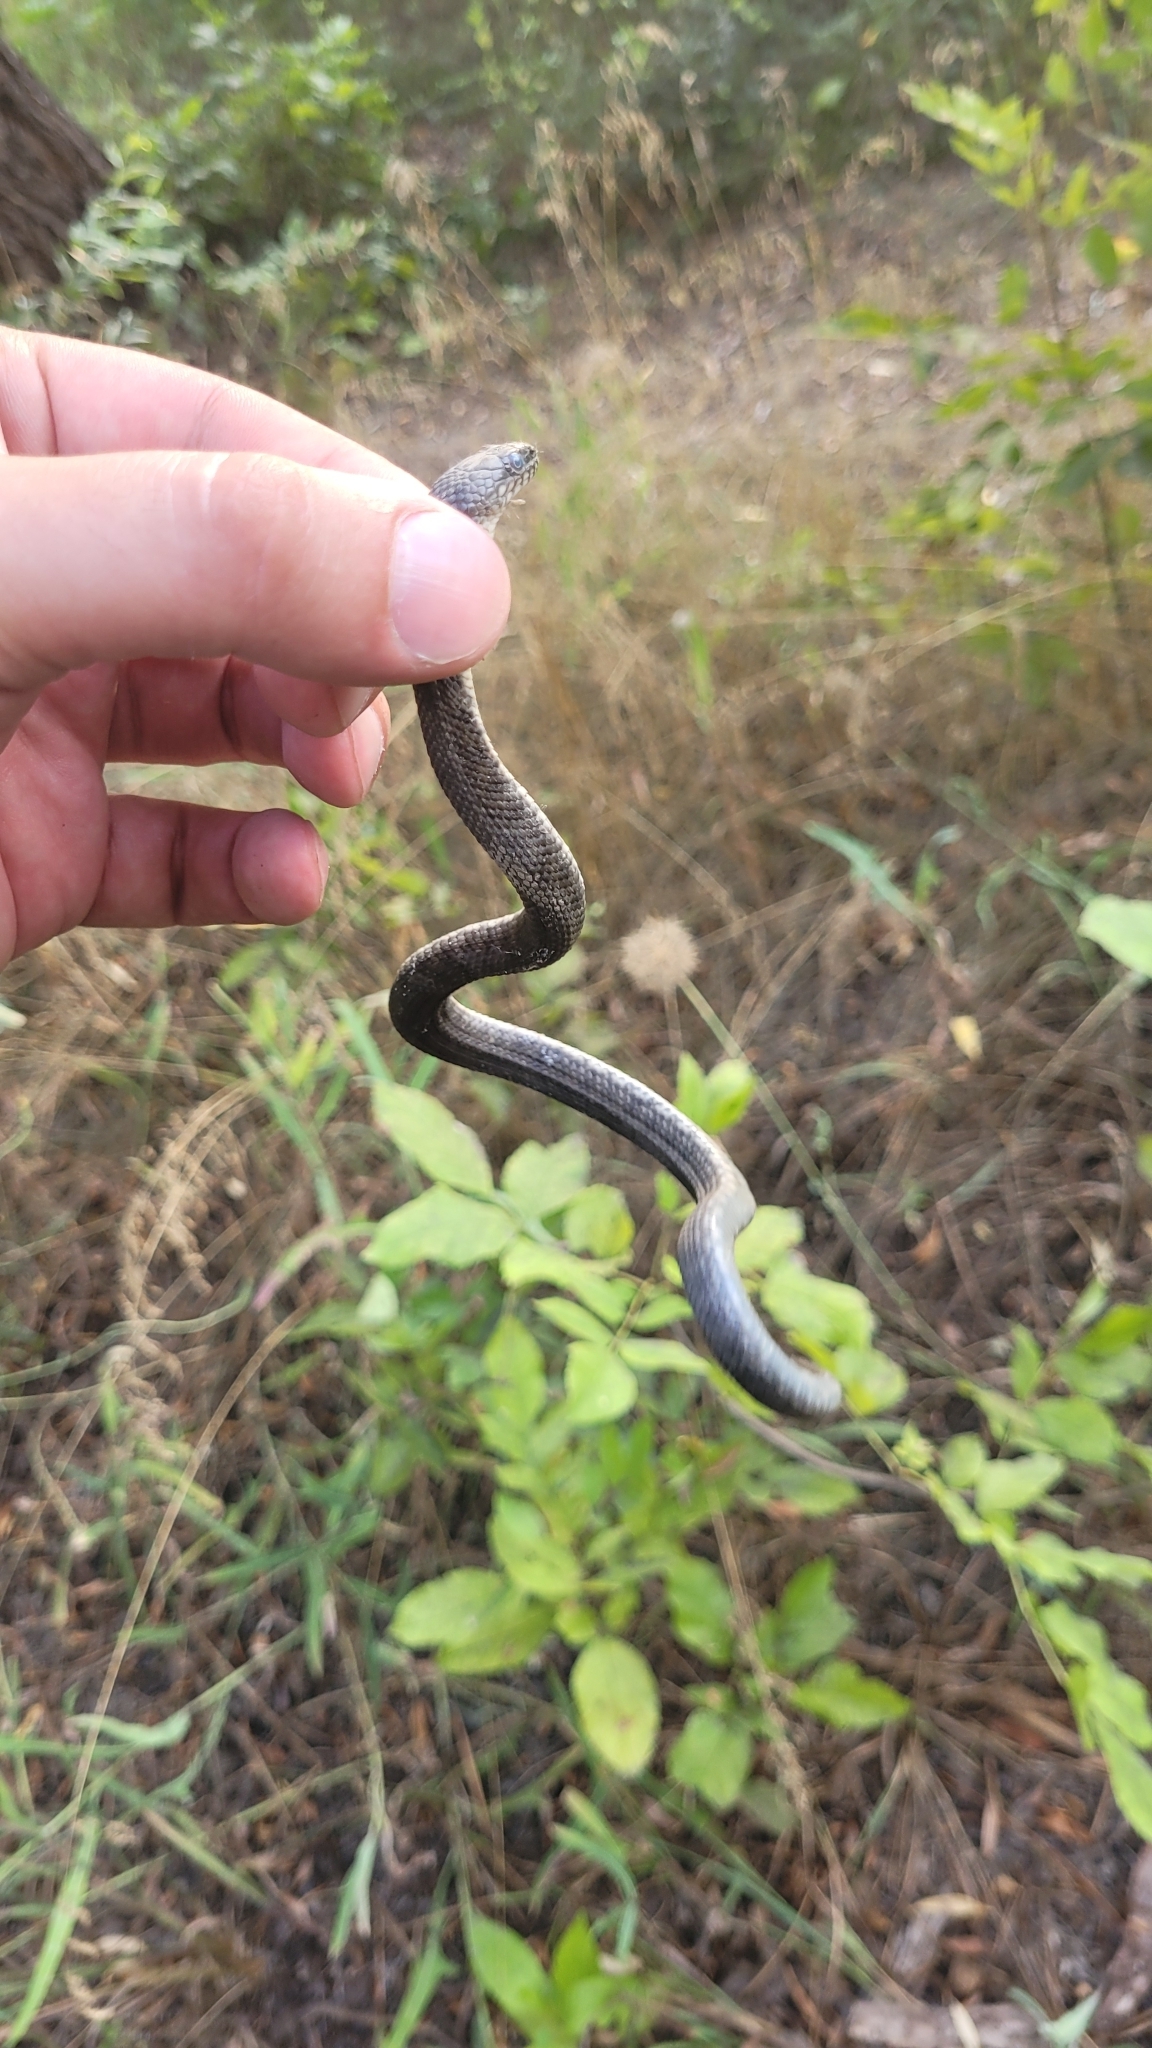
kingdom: Animalia
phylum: Chordata
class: Squamata
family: Colubridae
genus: Natrix
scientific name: Natrix tessellata
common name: Dice snake
